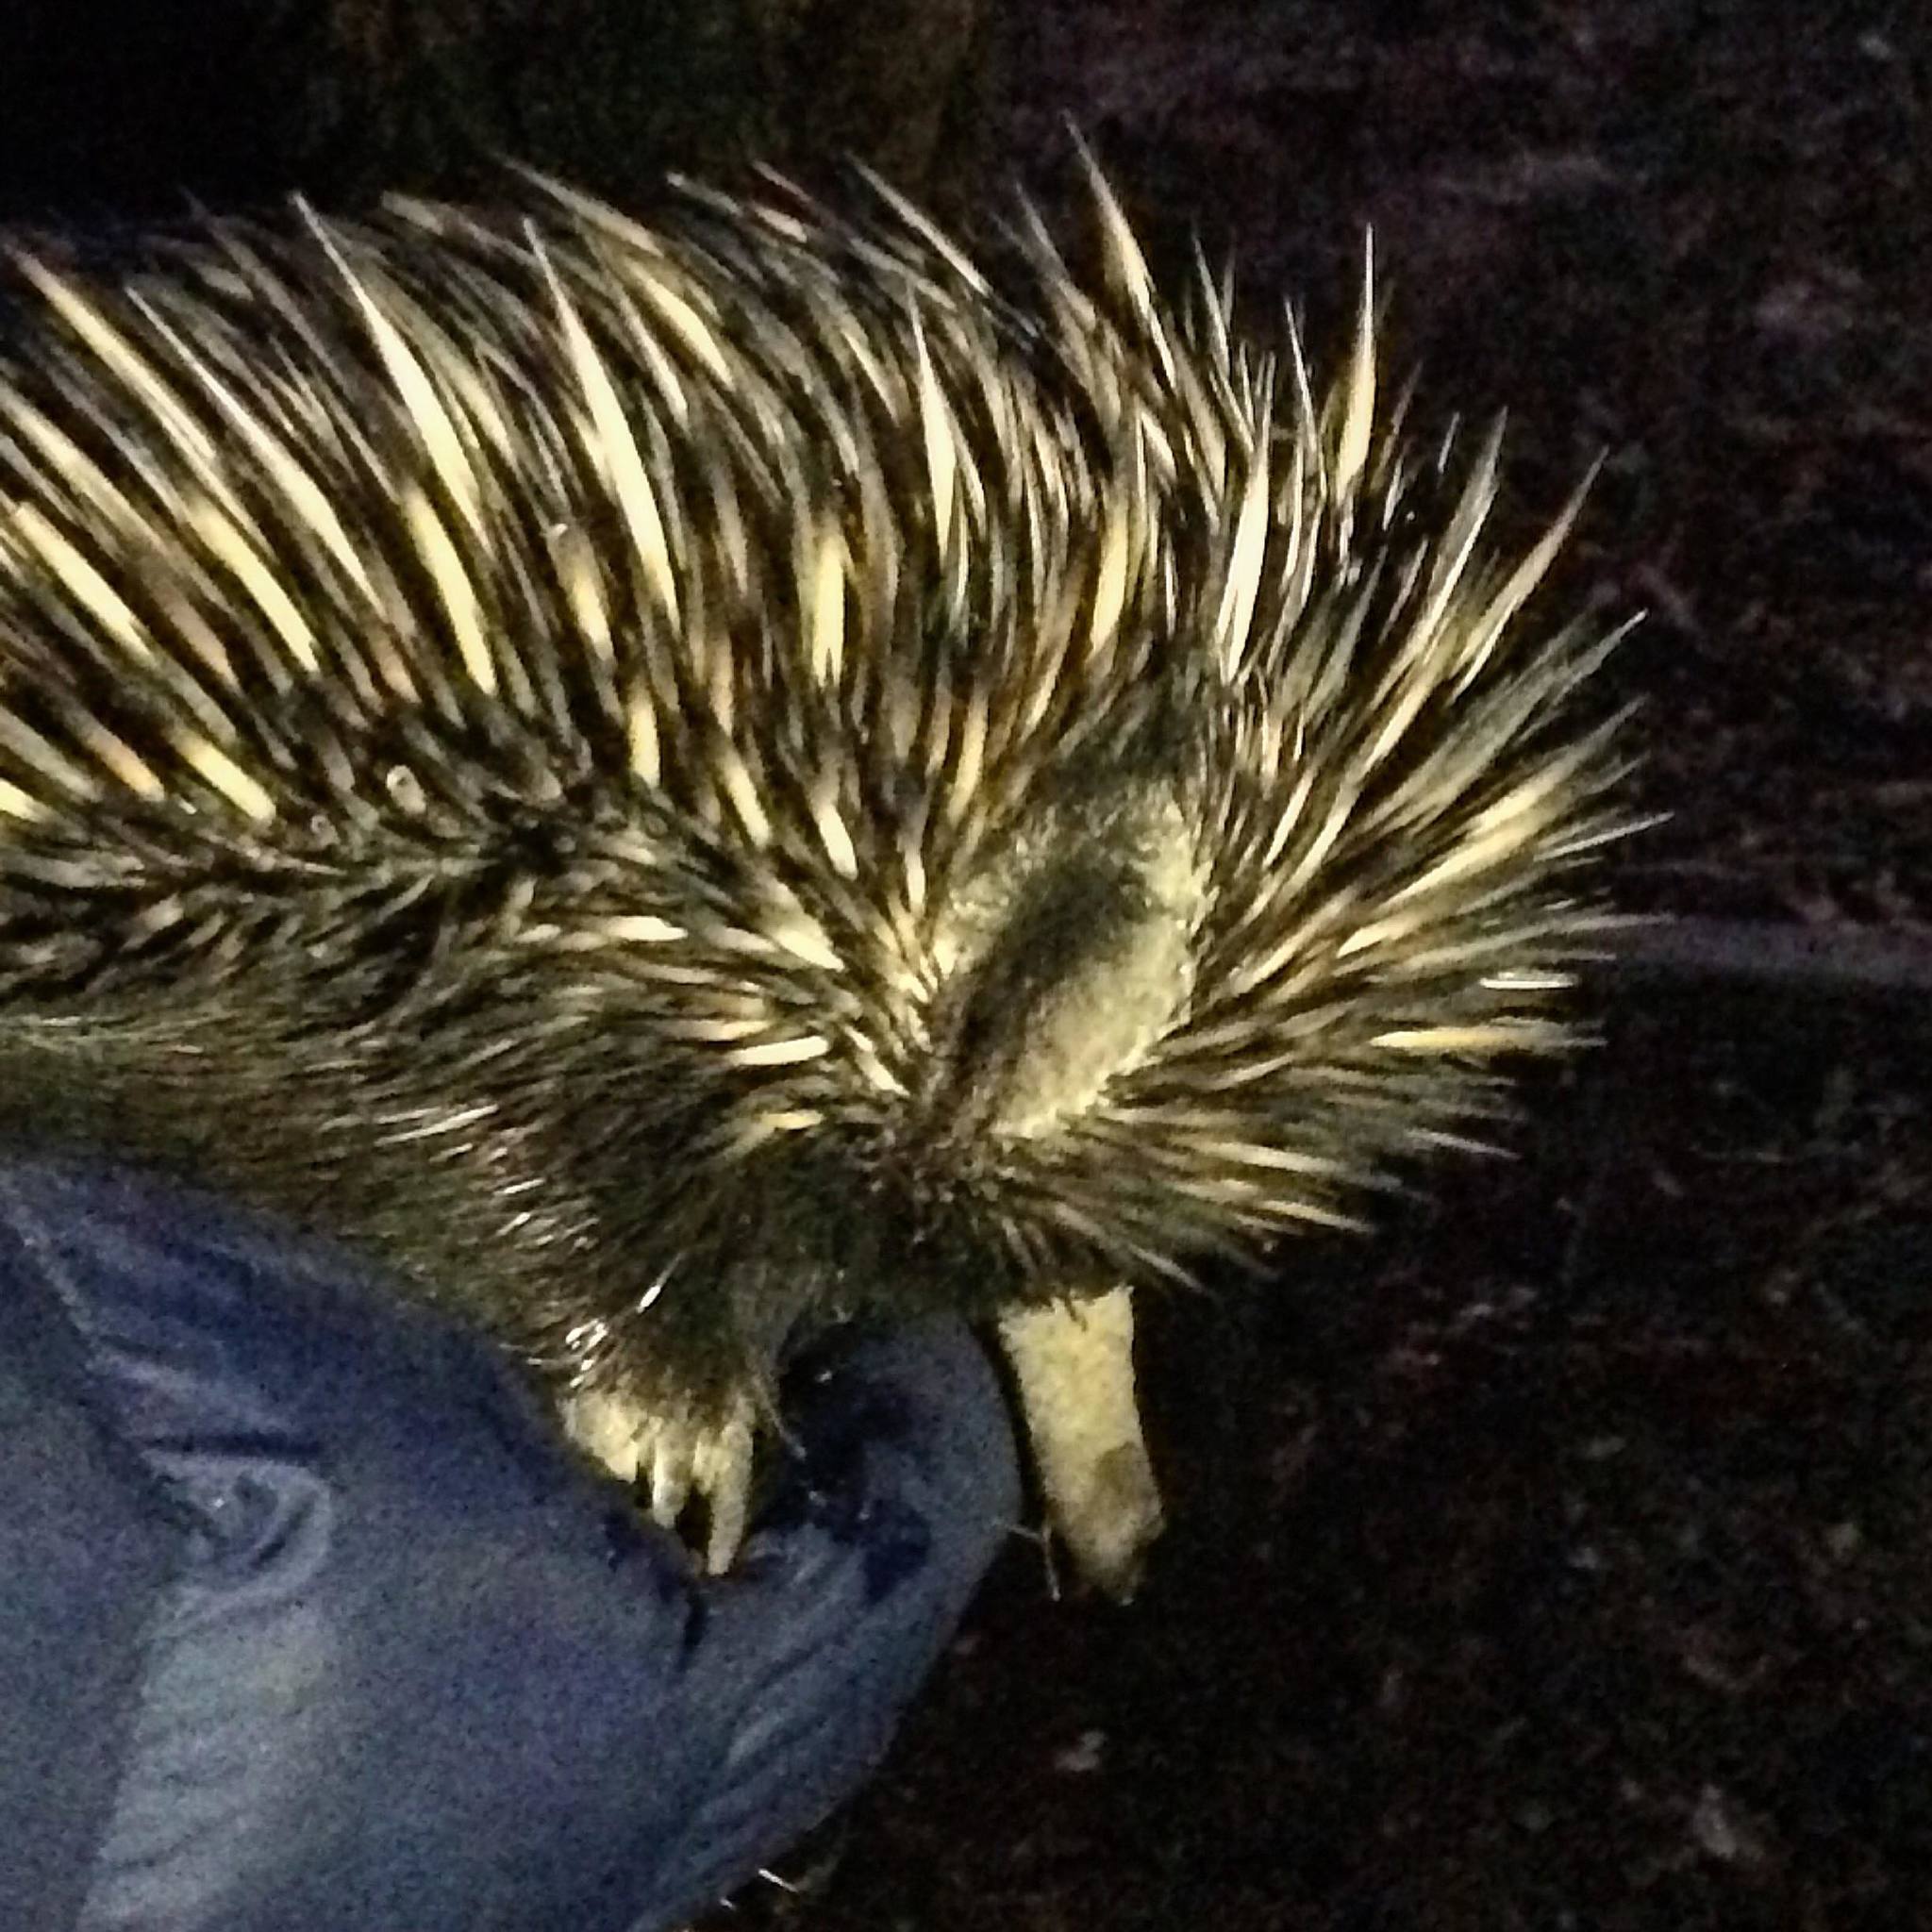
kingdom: Animalia
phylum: Chordata
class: Mammalia
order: Monotremata
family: Tachyglossidae
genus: Tachyglossus
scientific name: Tachyglossus aculeatus
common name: Short-beaked echidna
